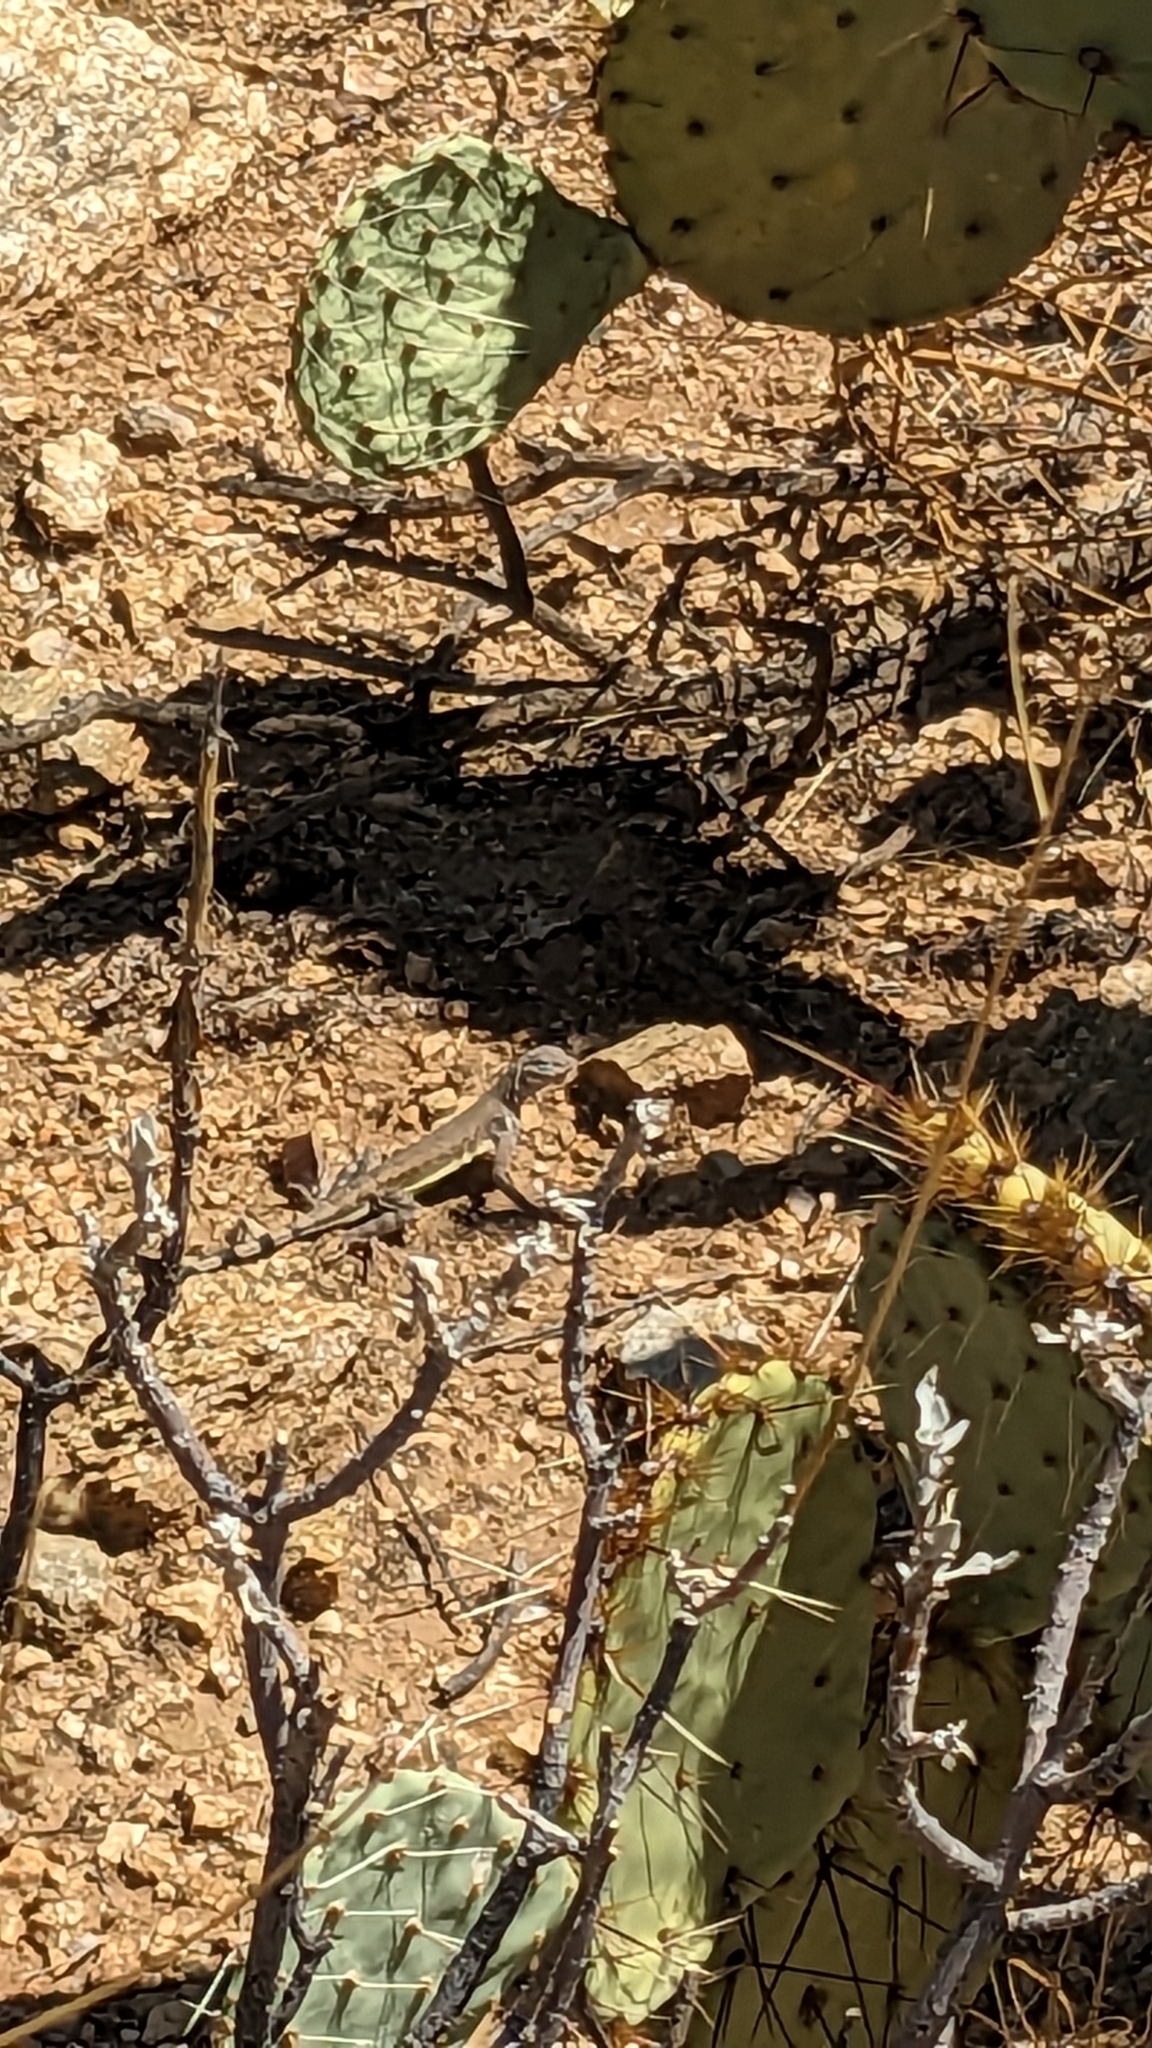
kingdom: Animalia
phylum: Chordata
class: Squamata
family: Phrynosomatidae
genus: Callisaurus
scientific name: Callisaurus draconoides
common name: Zebra-tailed lizard
